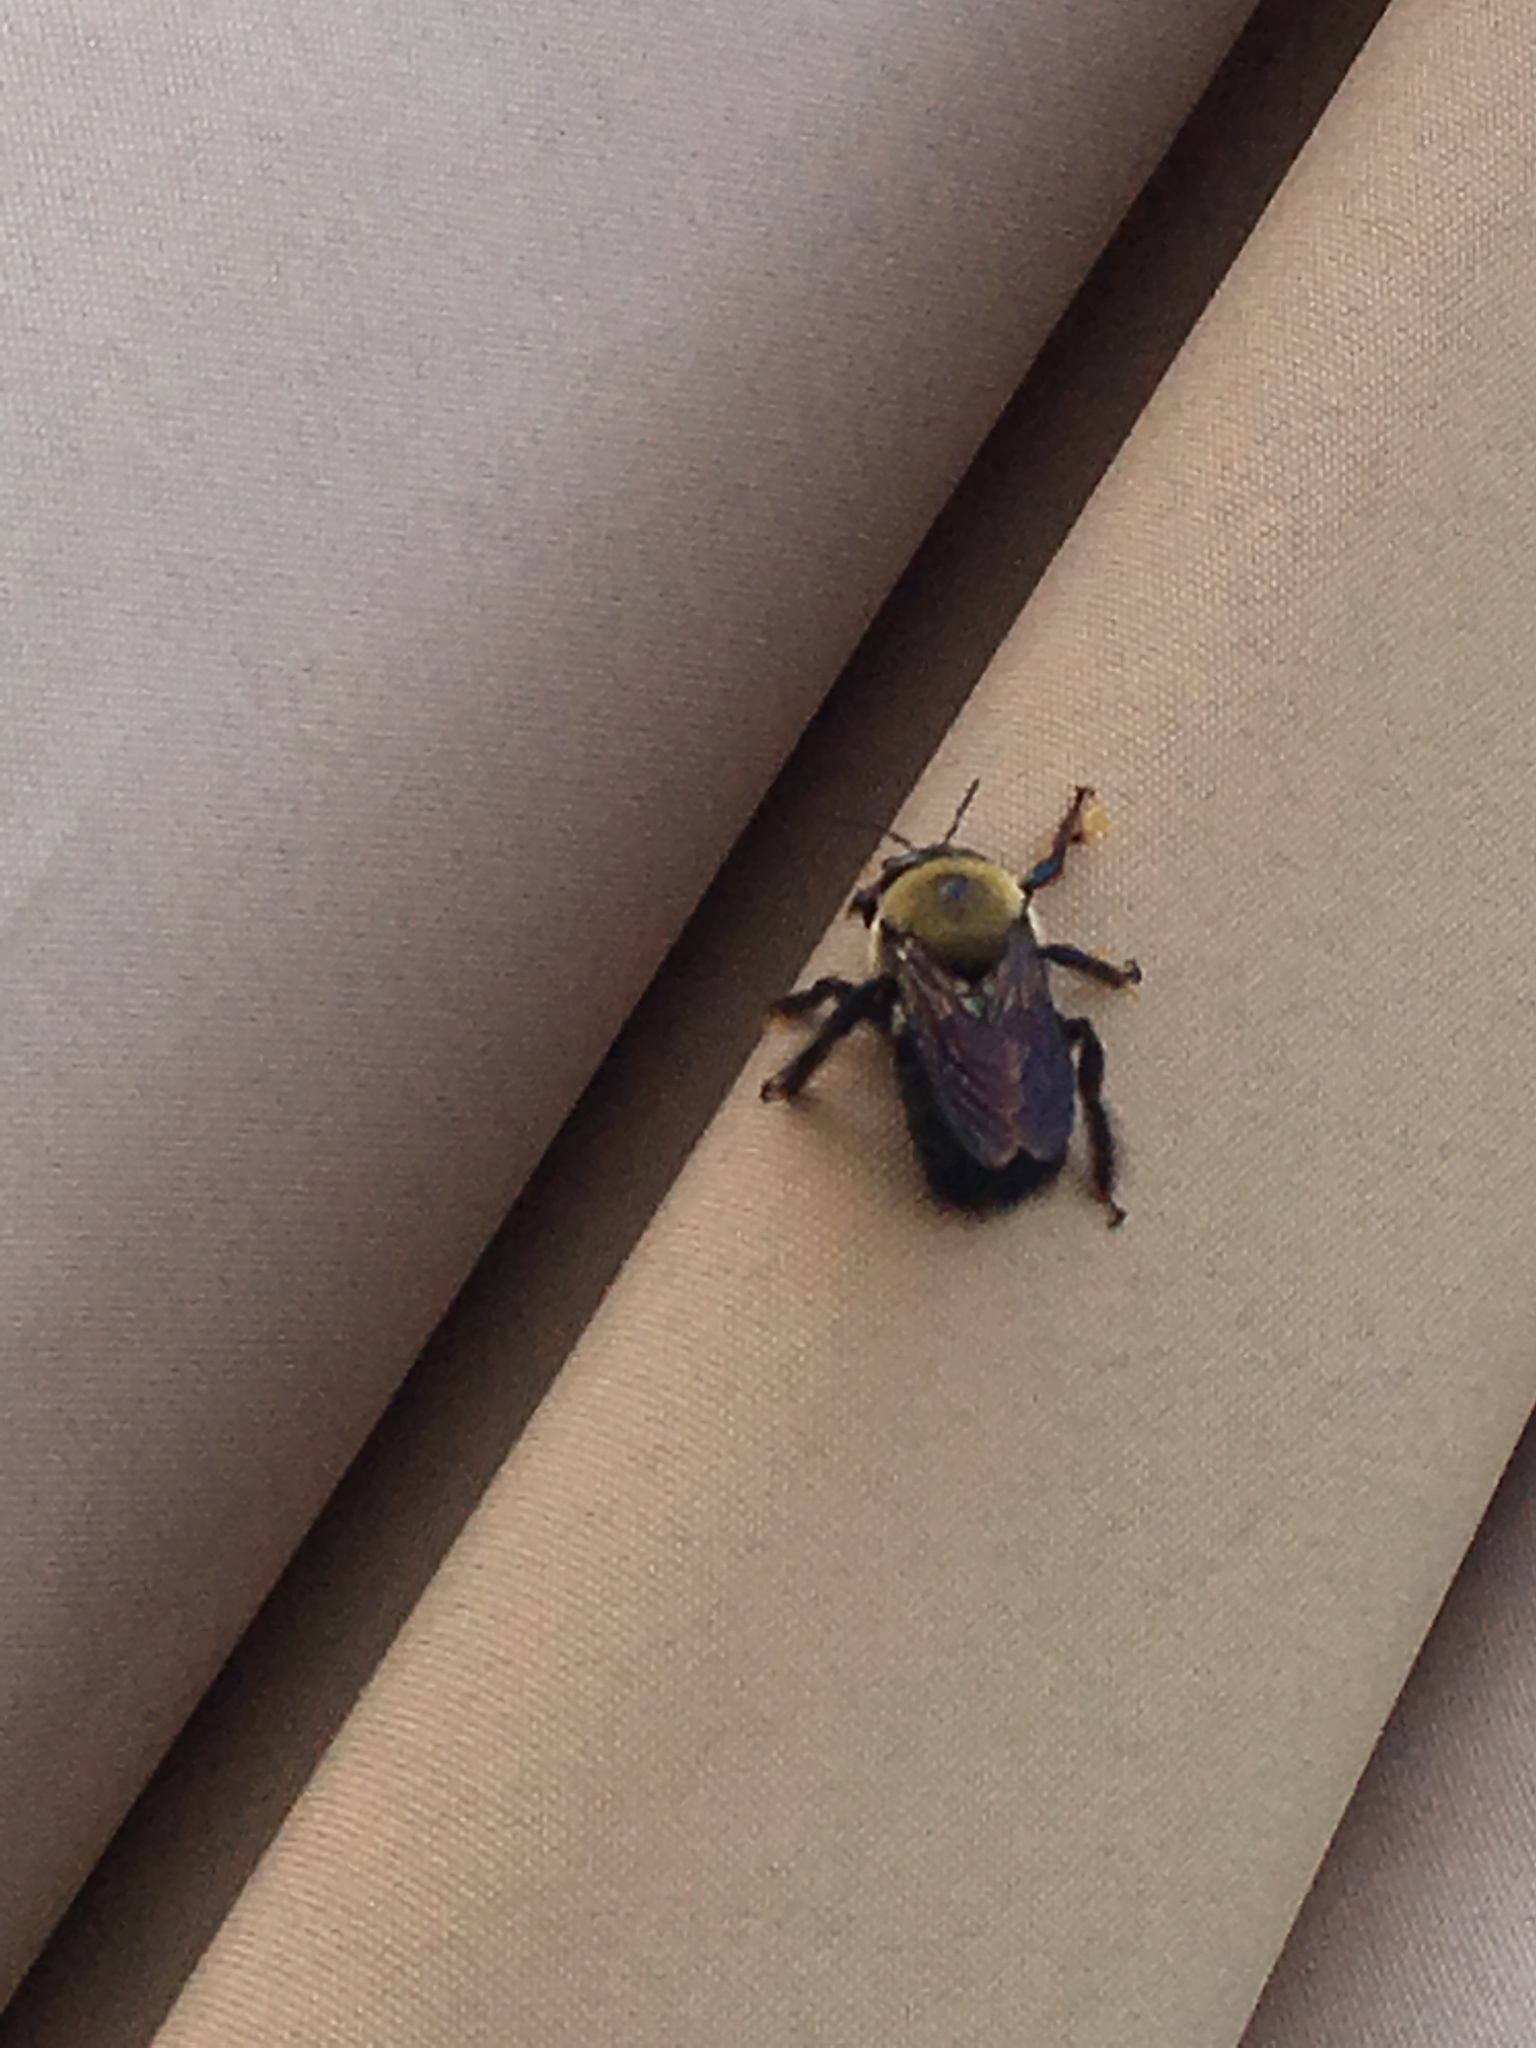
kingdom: Animalia
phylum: Arthropoda
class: Insecta
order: Hymenoptera
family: Apidae
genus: Xylocopa
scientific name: Xylocopa virginica
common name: Carpenter bee
